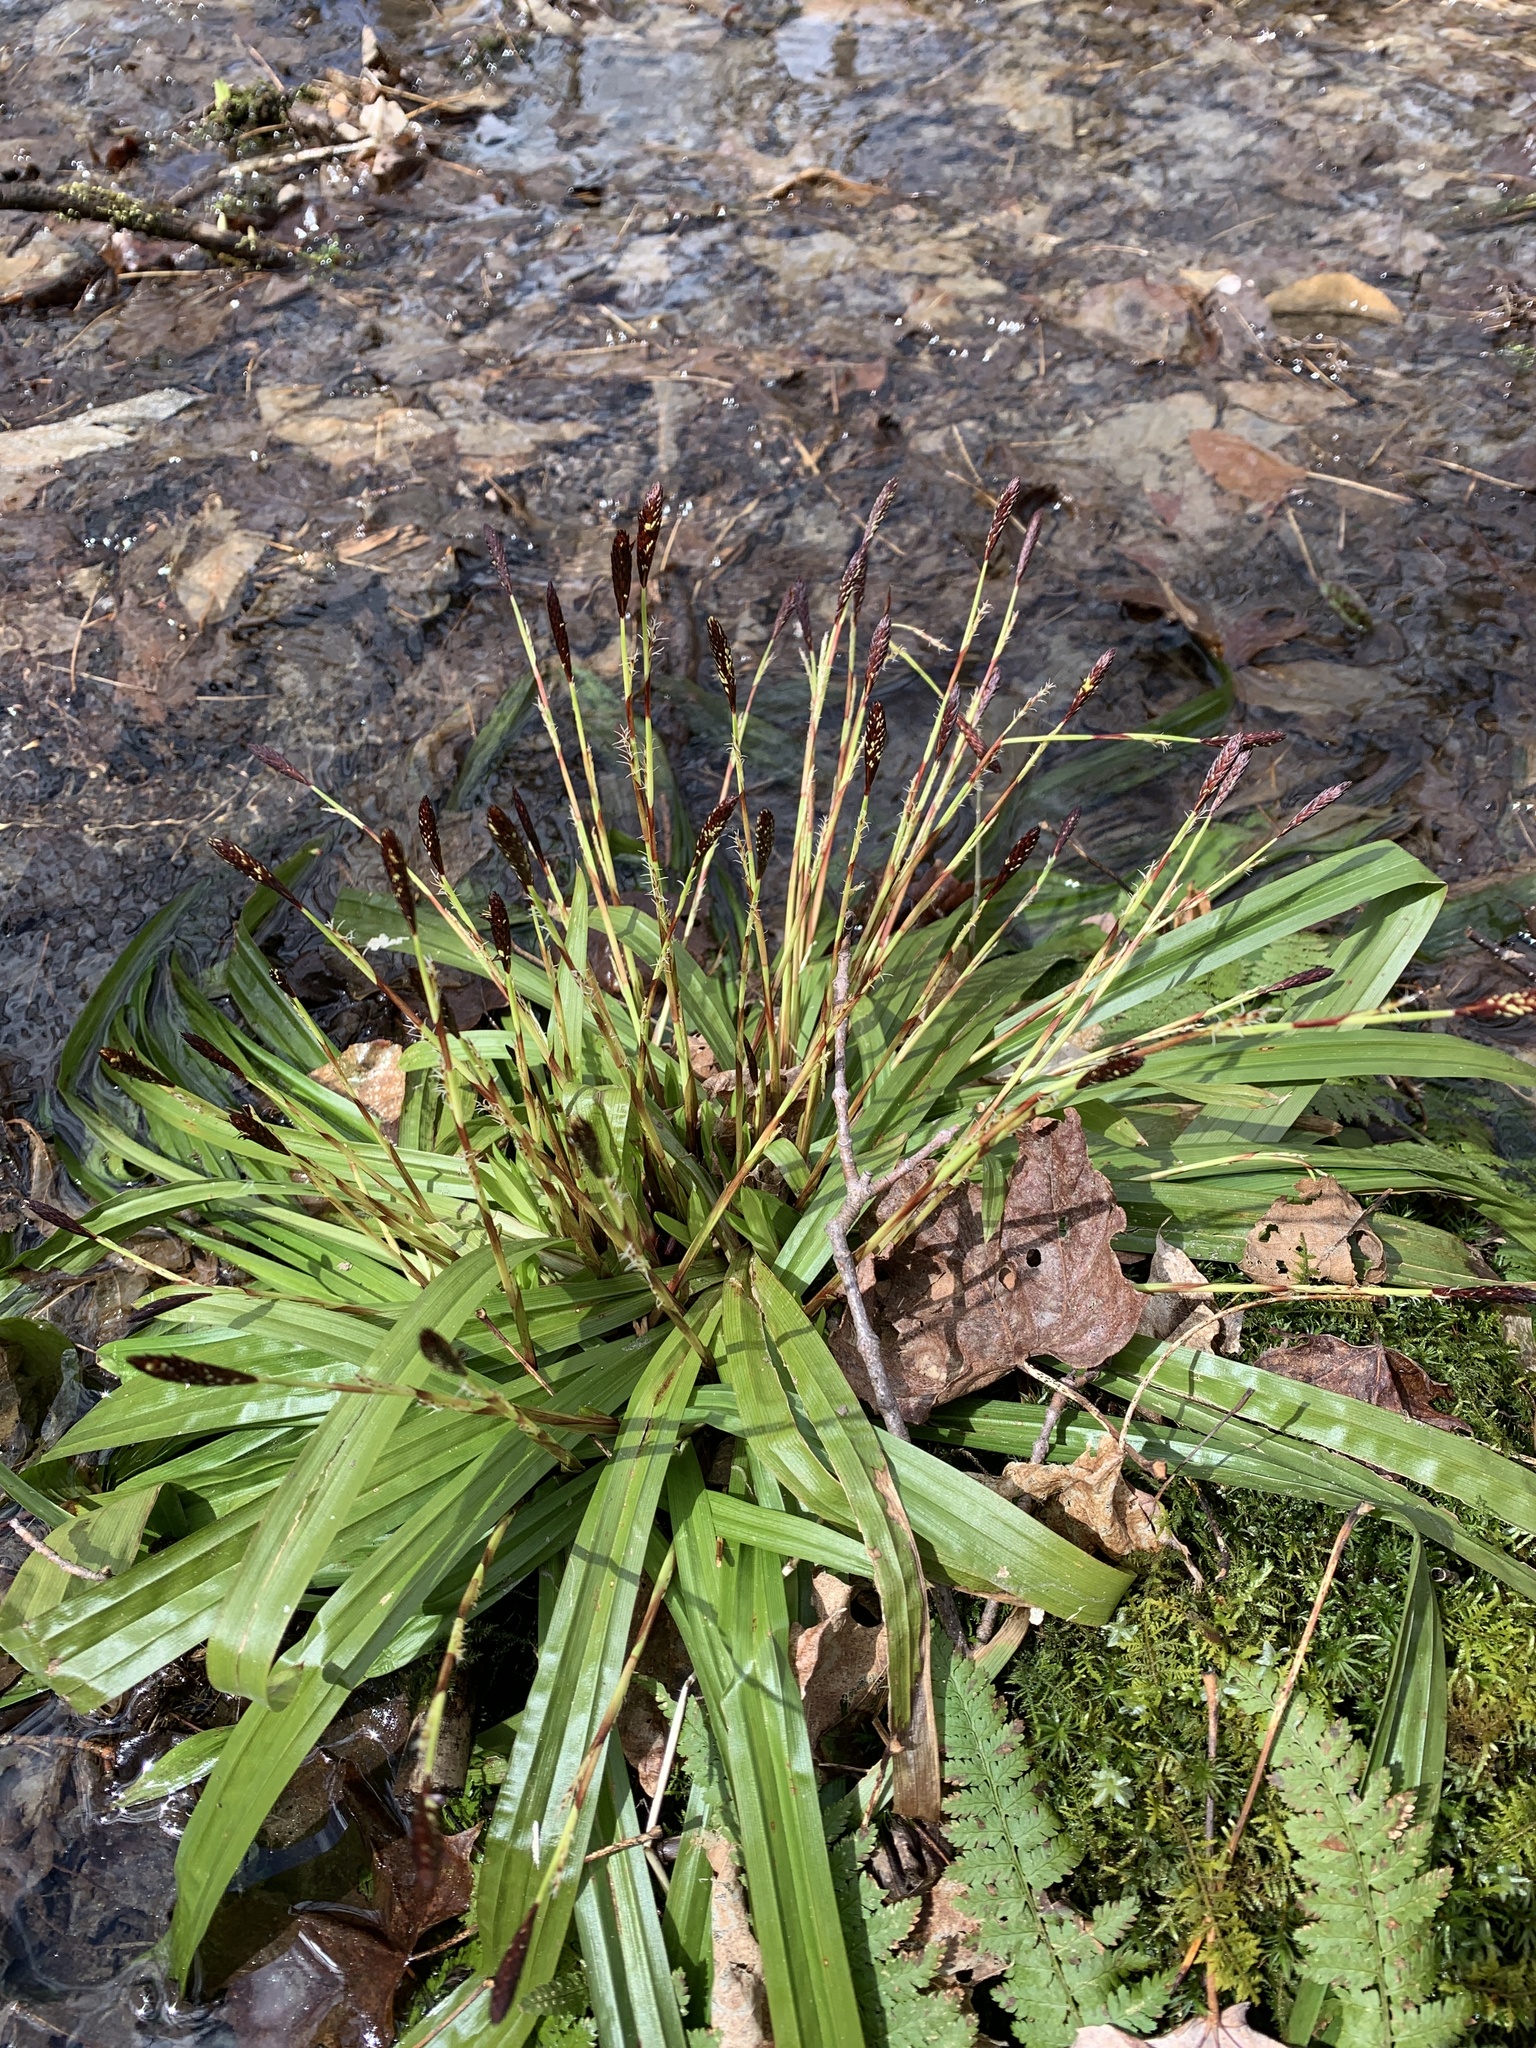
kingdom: Plantae
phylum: Tracheophyta
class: Liliopsida
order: Poales
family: Cyperaceae
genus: Carex
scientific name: Carex plantaginea
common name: Plantain-leaved sedge
